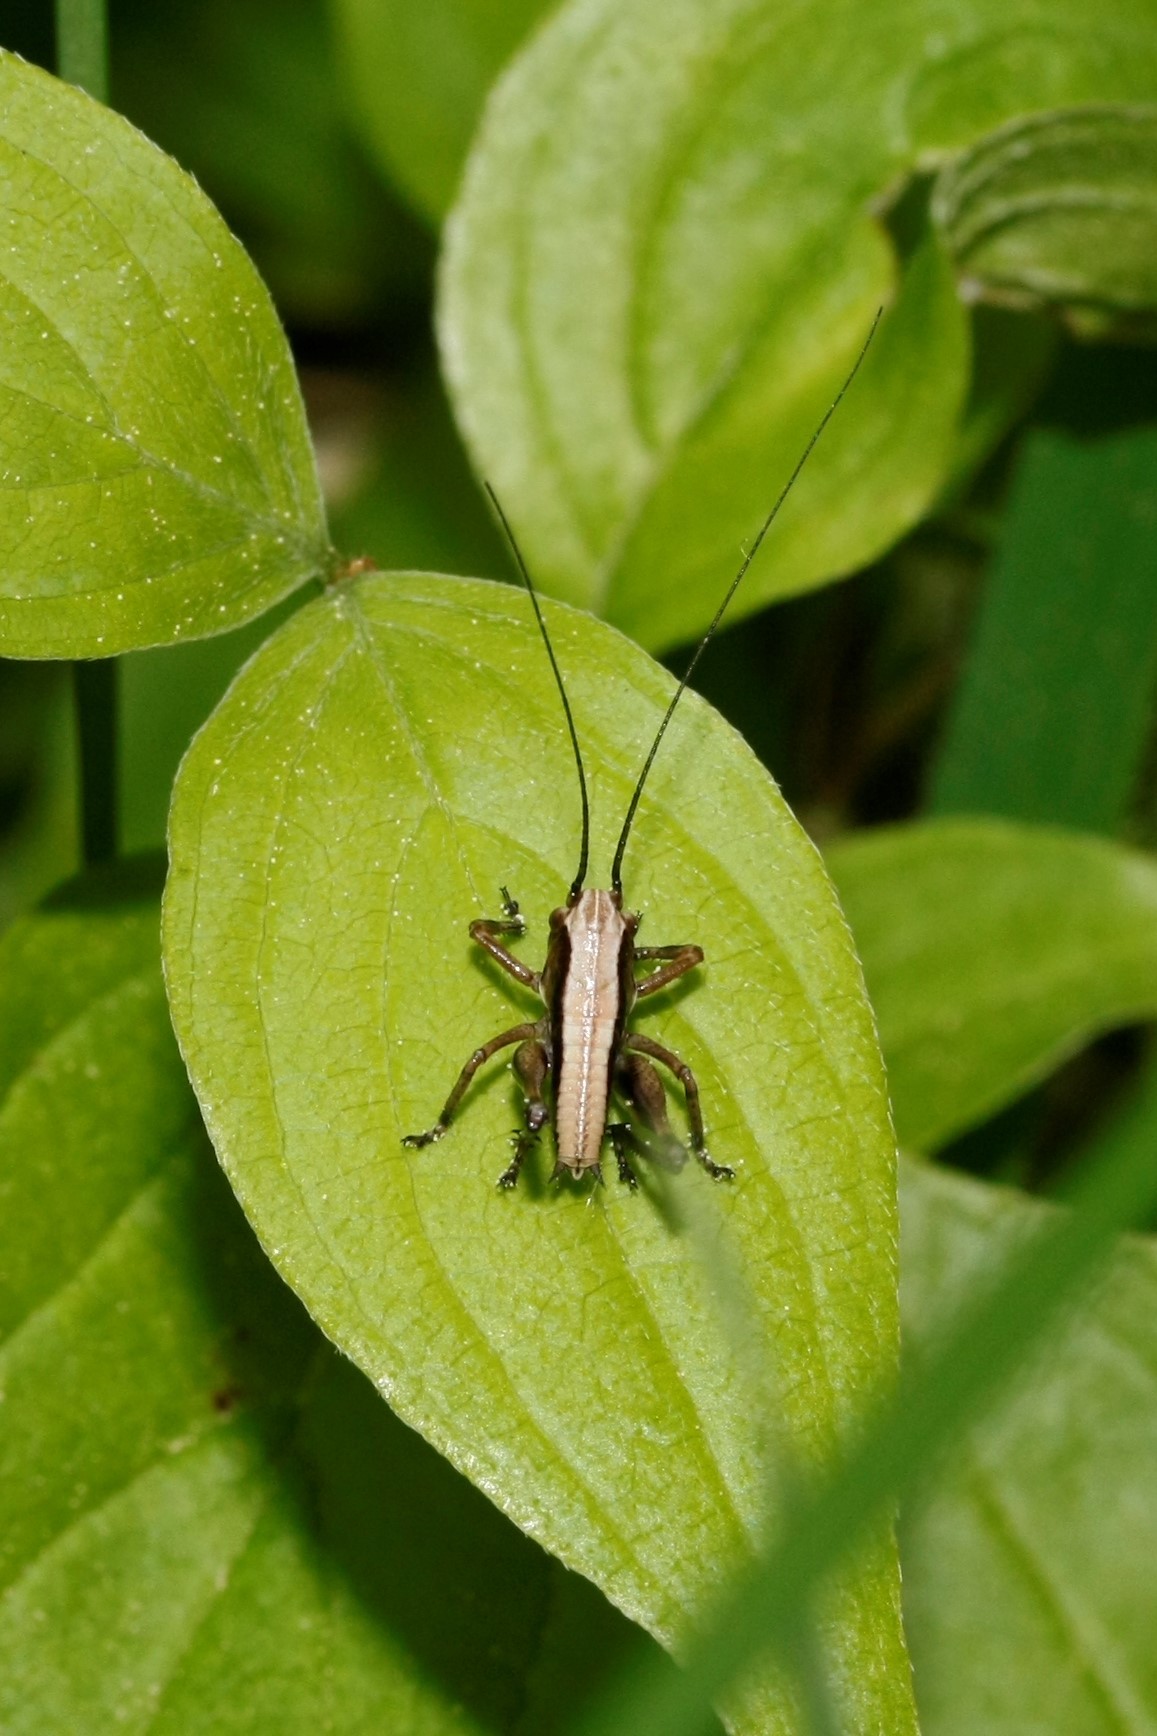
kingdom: Animalia
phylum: Arthropoda
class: Insecta
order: Orthoptera
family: Tettigoniidae
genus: Pholidoptera
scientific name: Pholidoptera griseoaptera
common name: Dark bush-cricket
